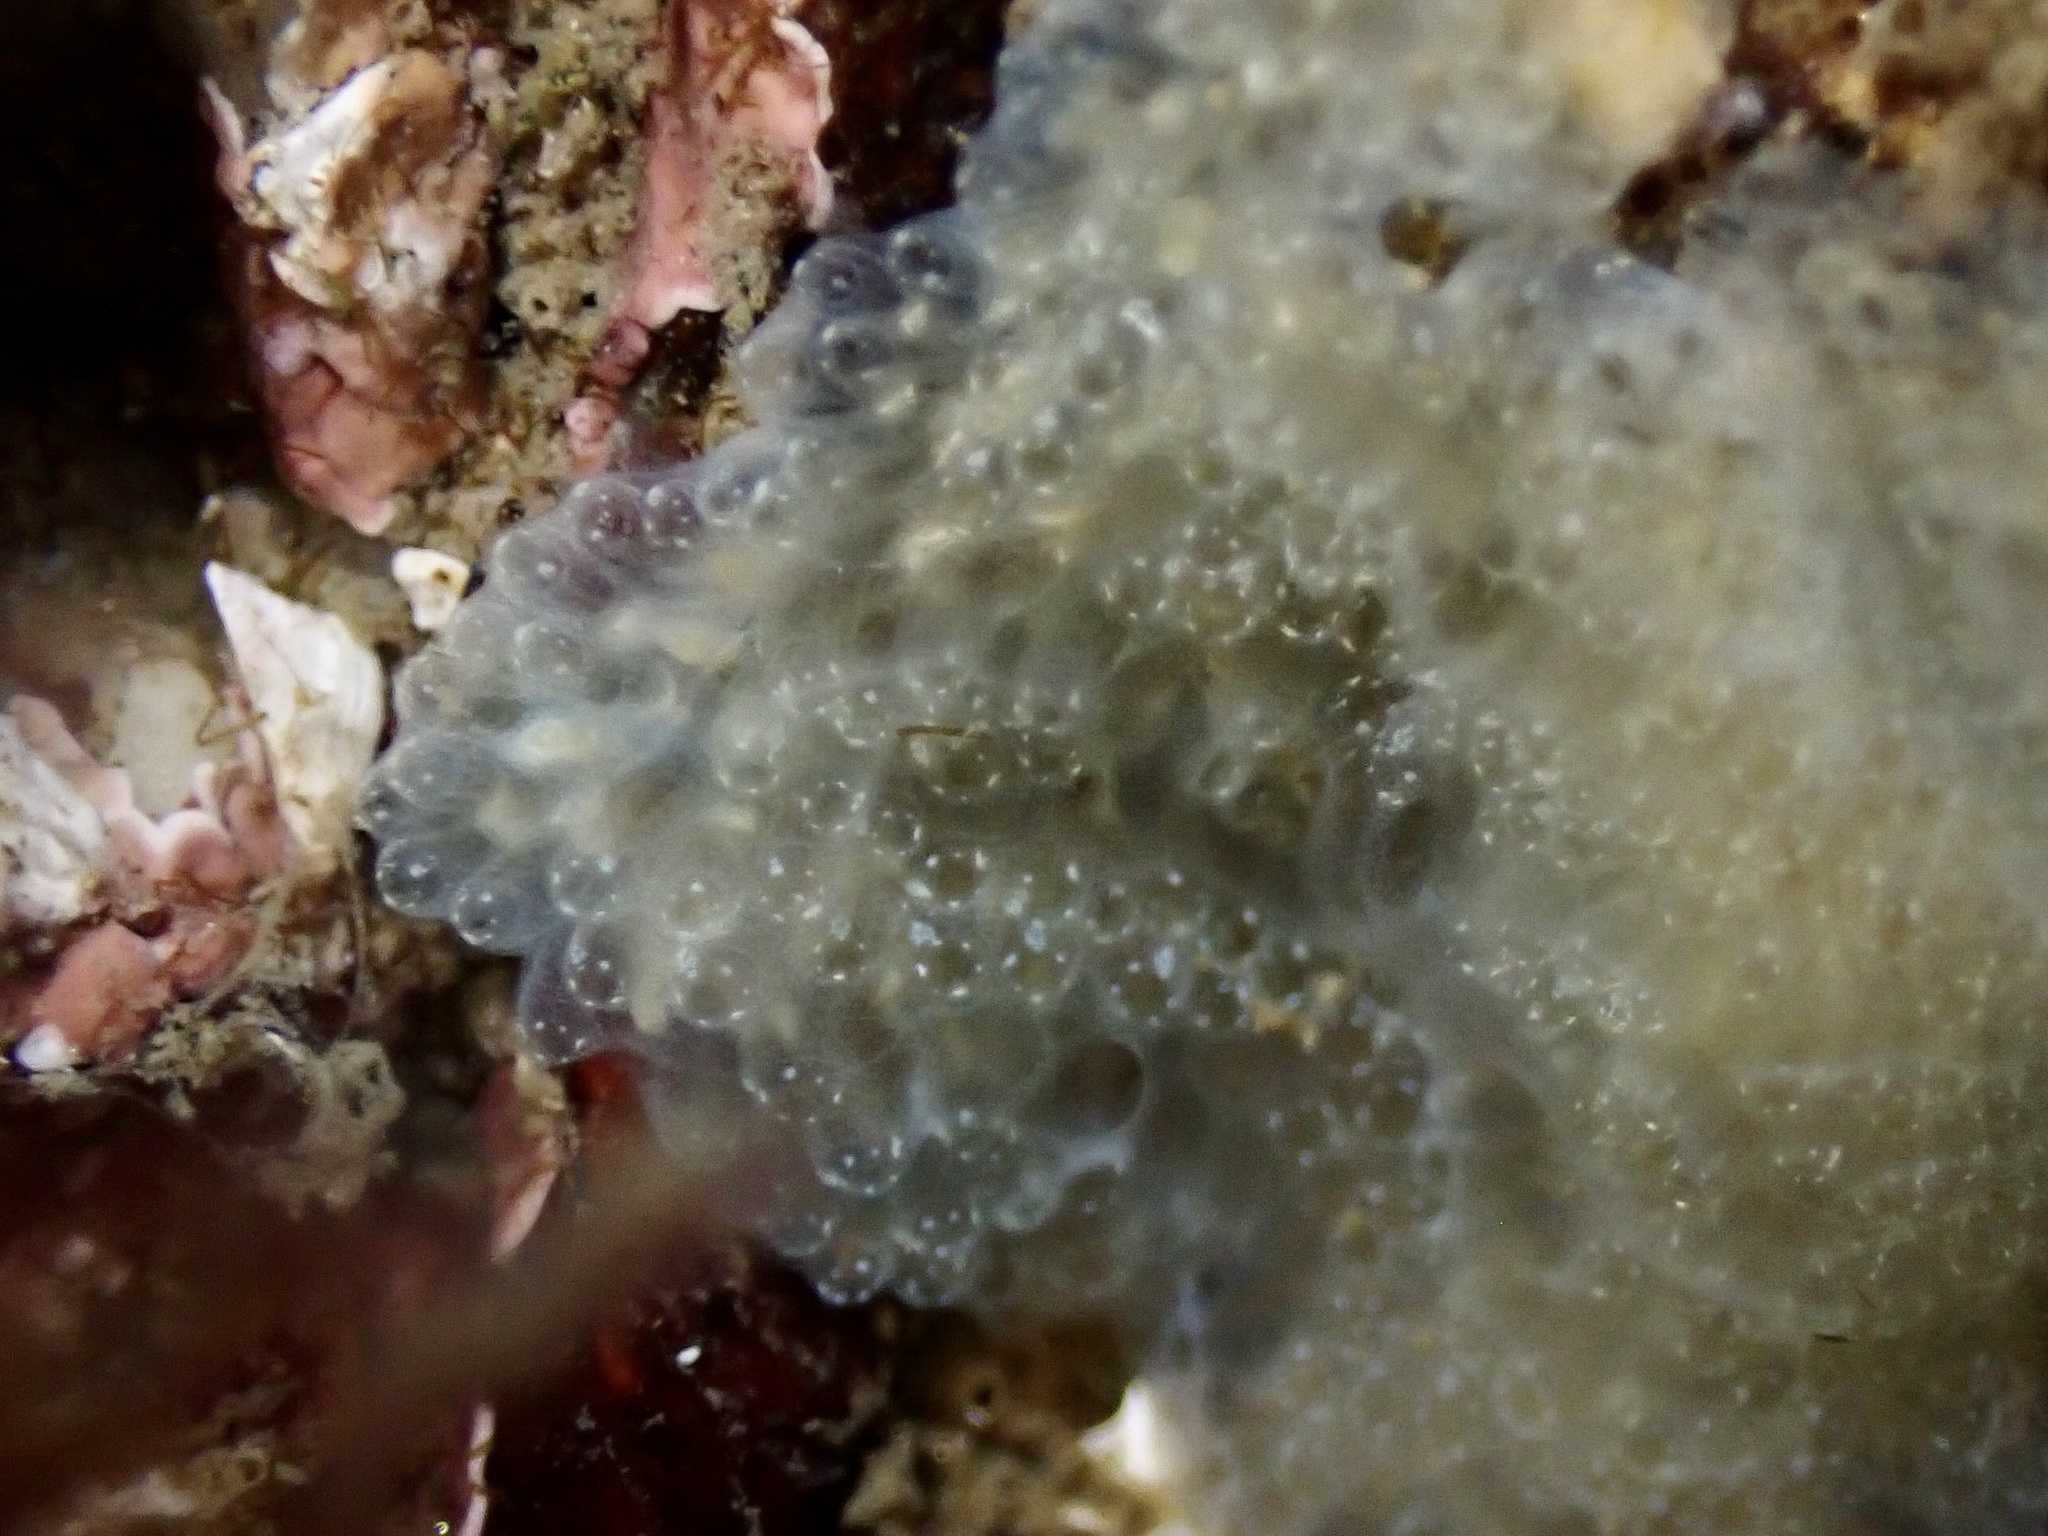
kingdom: Animalia
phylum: Chordata
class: Ascidiacea
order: Aplousobranchia
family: Didemnidae
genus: Diplosoma
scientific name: Diplosoma listerianum
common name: Compound sea squirt
